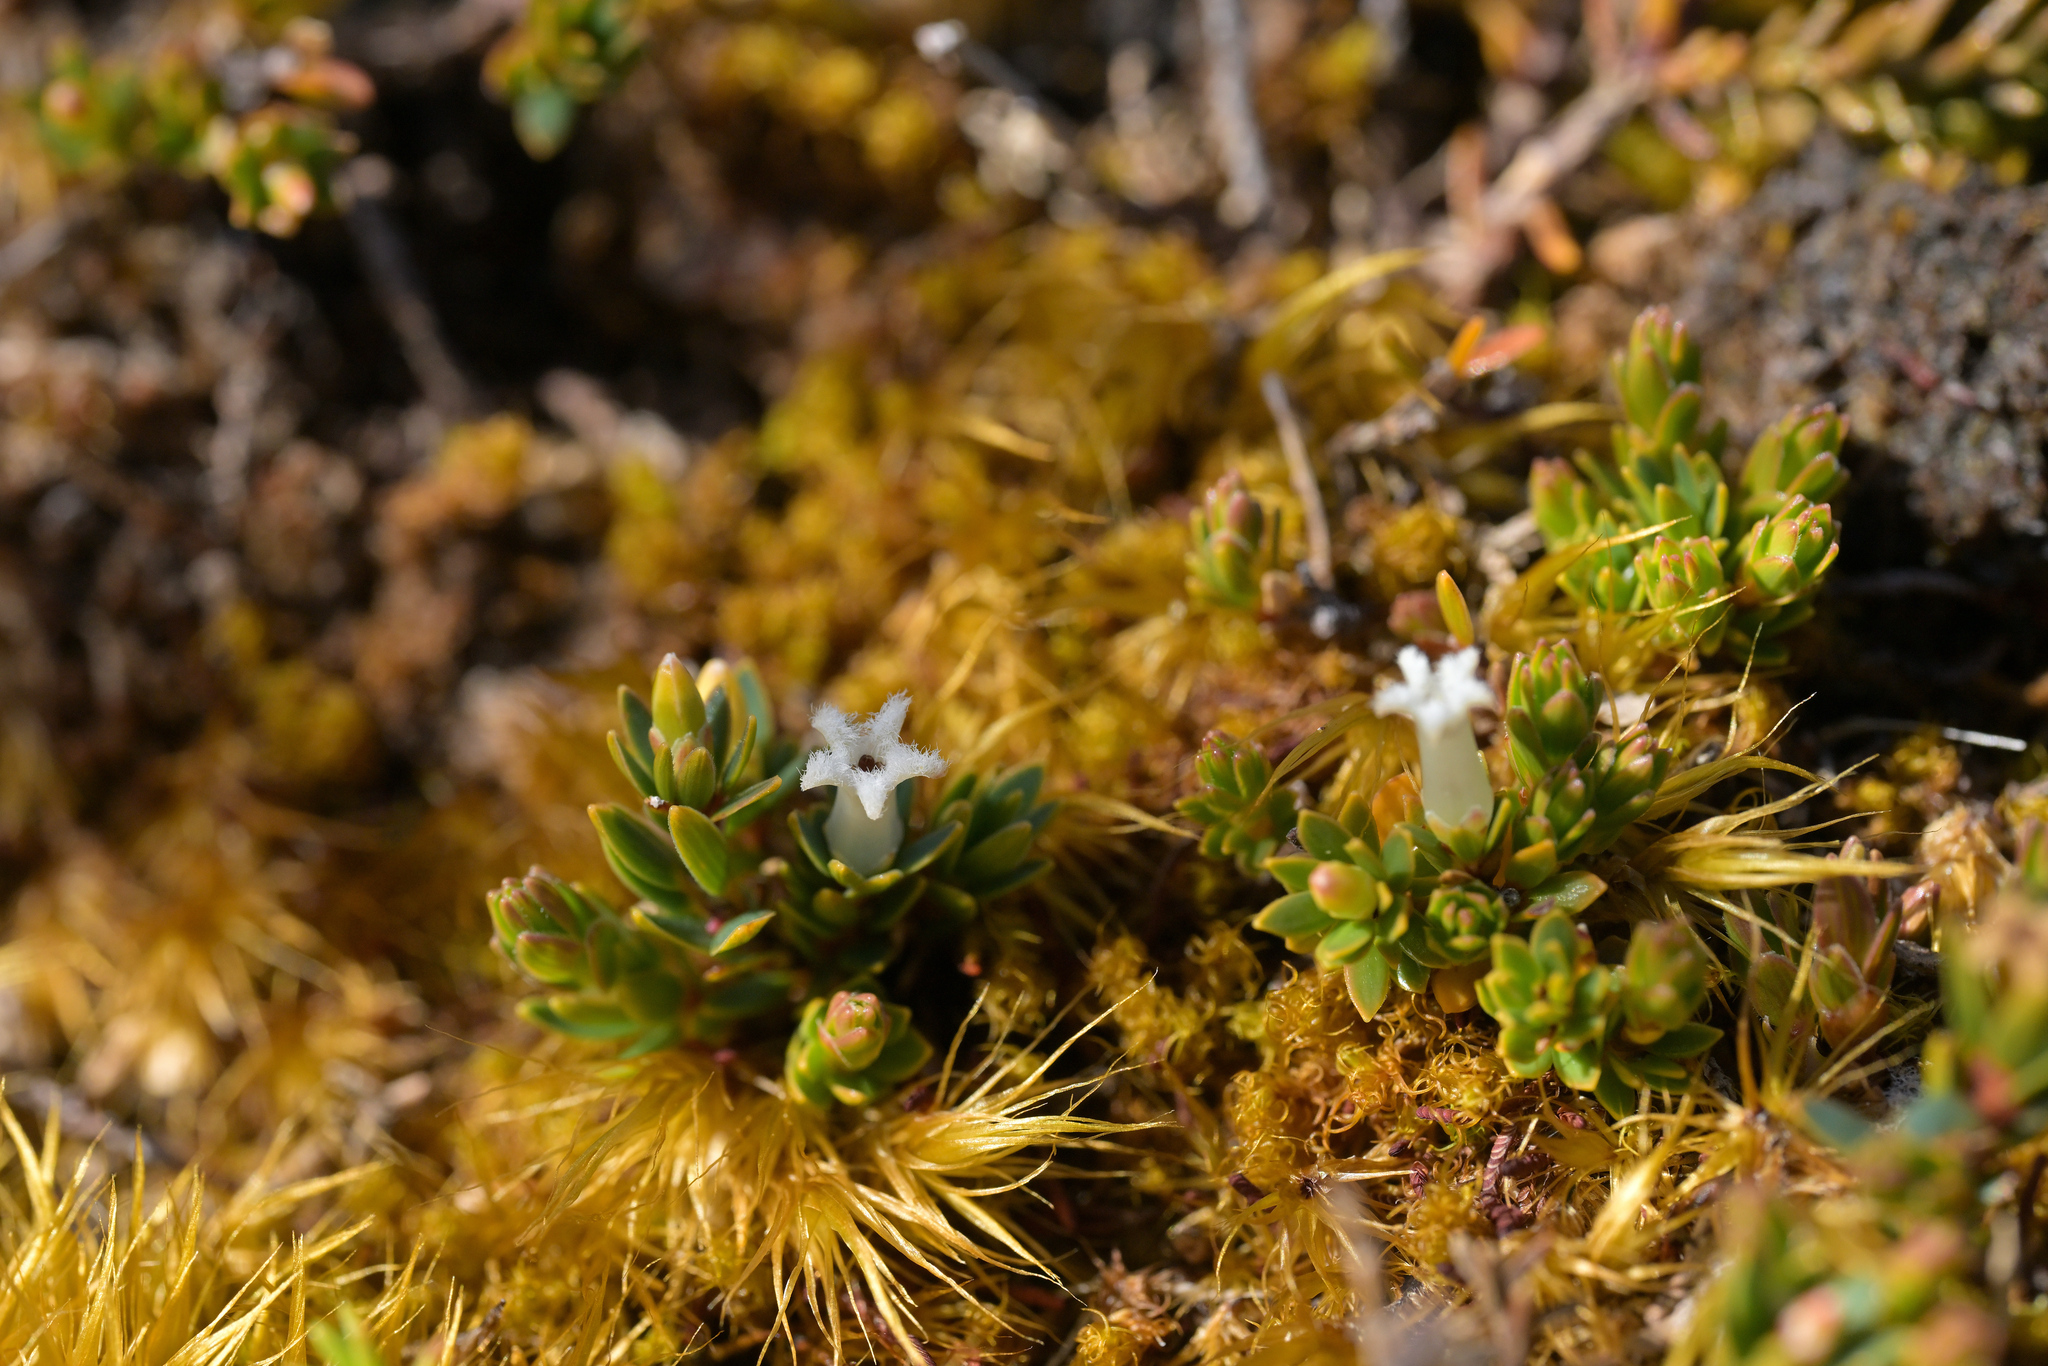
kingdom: Plantae
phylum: Tracheophyta
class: Magnoliopsida
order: Ericales
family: Ericaceae
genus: Pentachondra
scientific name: Pentachondra pumila
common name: Carpet-heath
